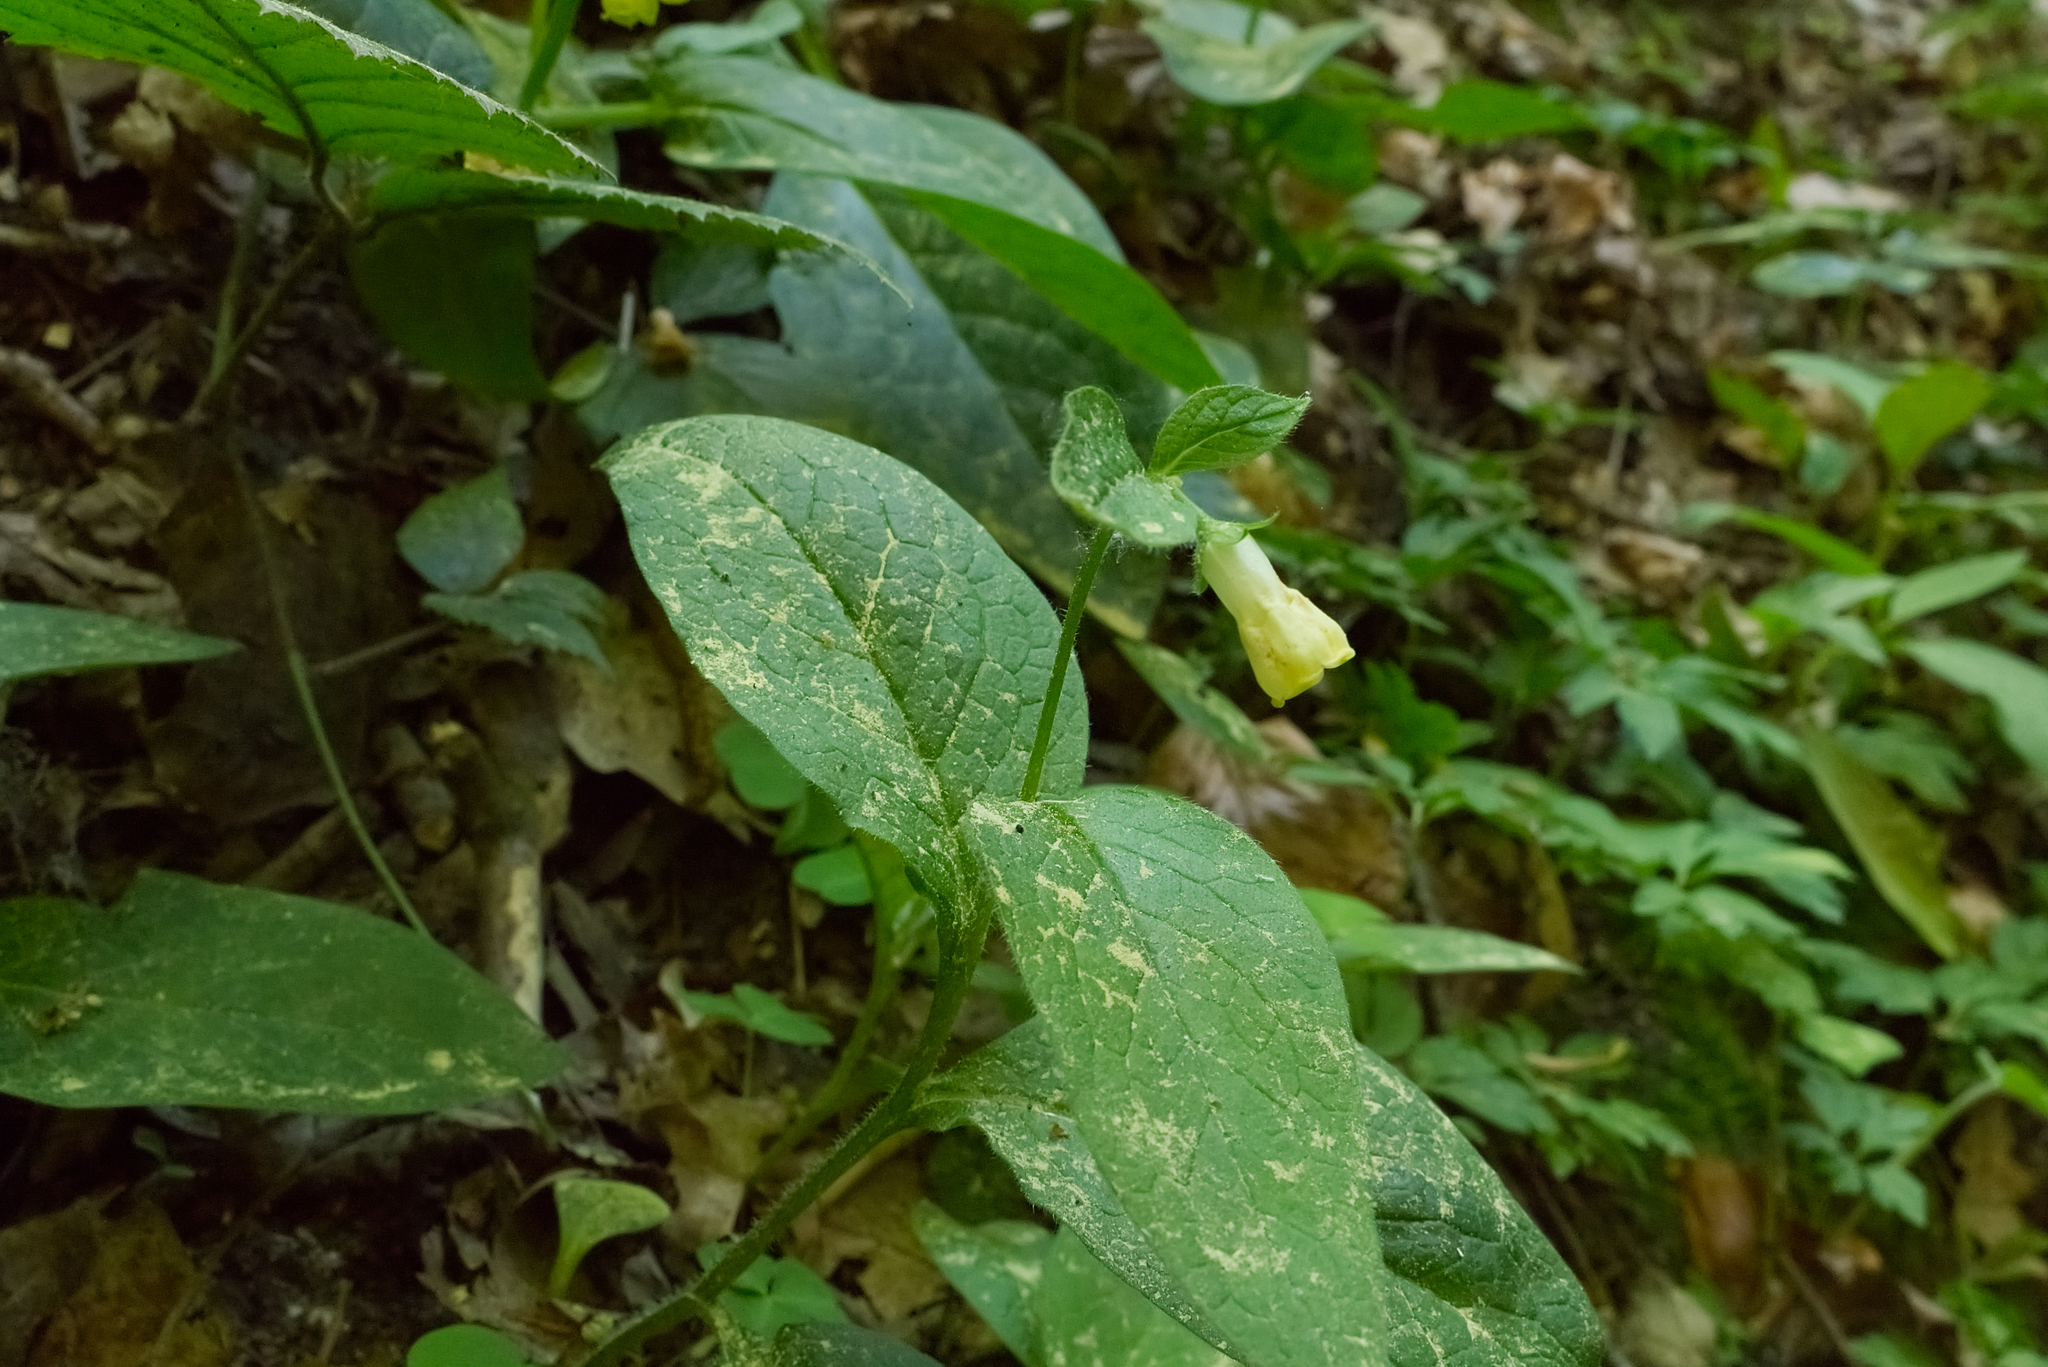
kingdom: Plantae
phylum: Tracheophyta
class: Magnoliopsida
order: Boraginales
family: Boraginaceae
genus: Symphytum
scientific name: Symphytum tuberosum
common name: Tuberous comfrey
